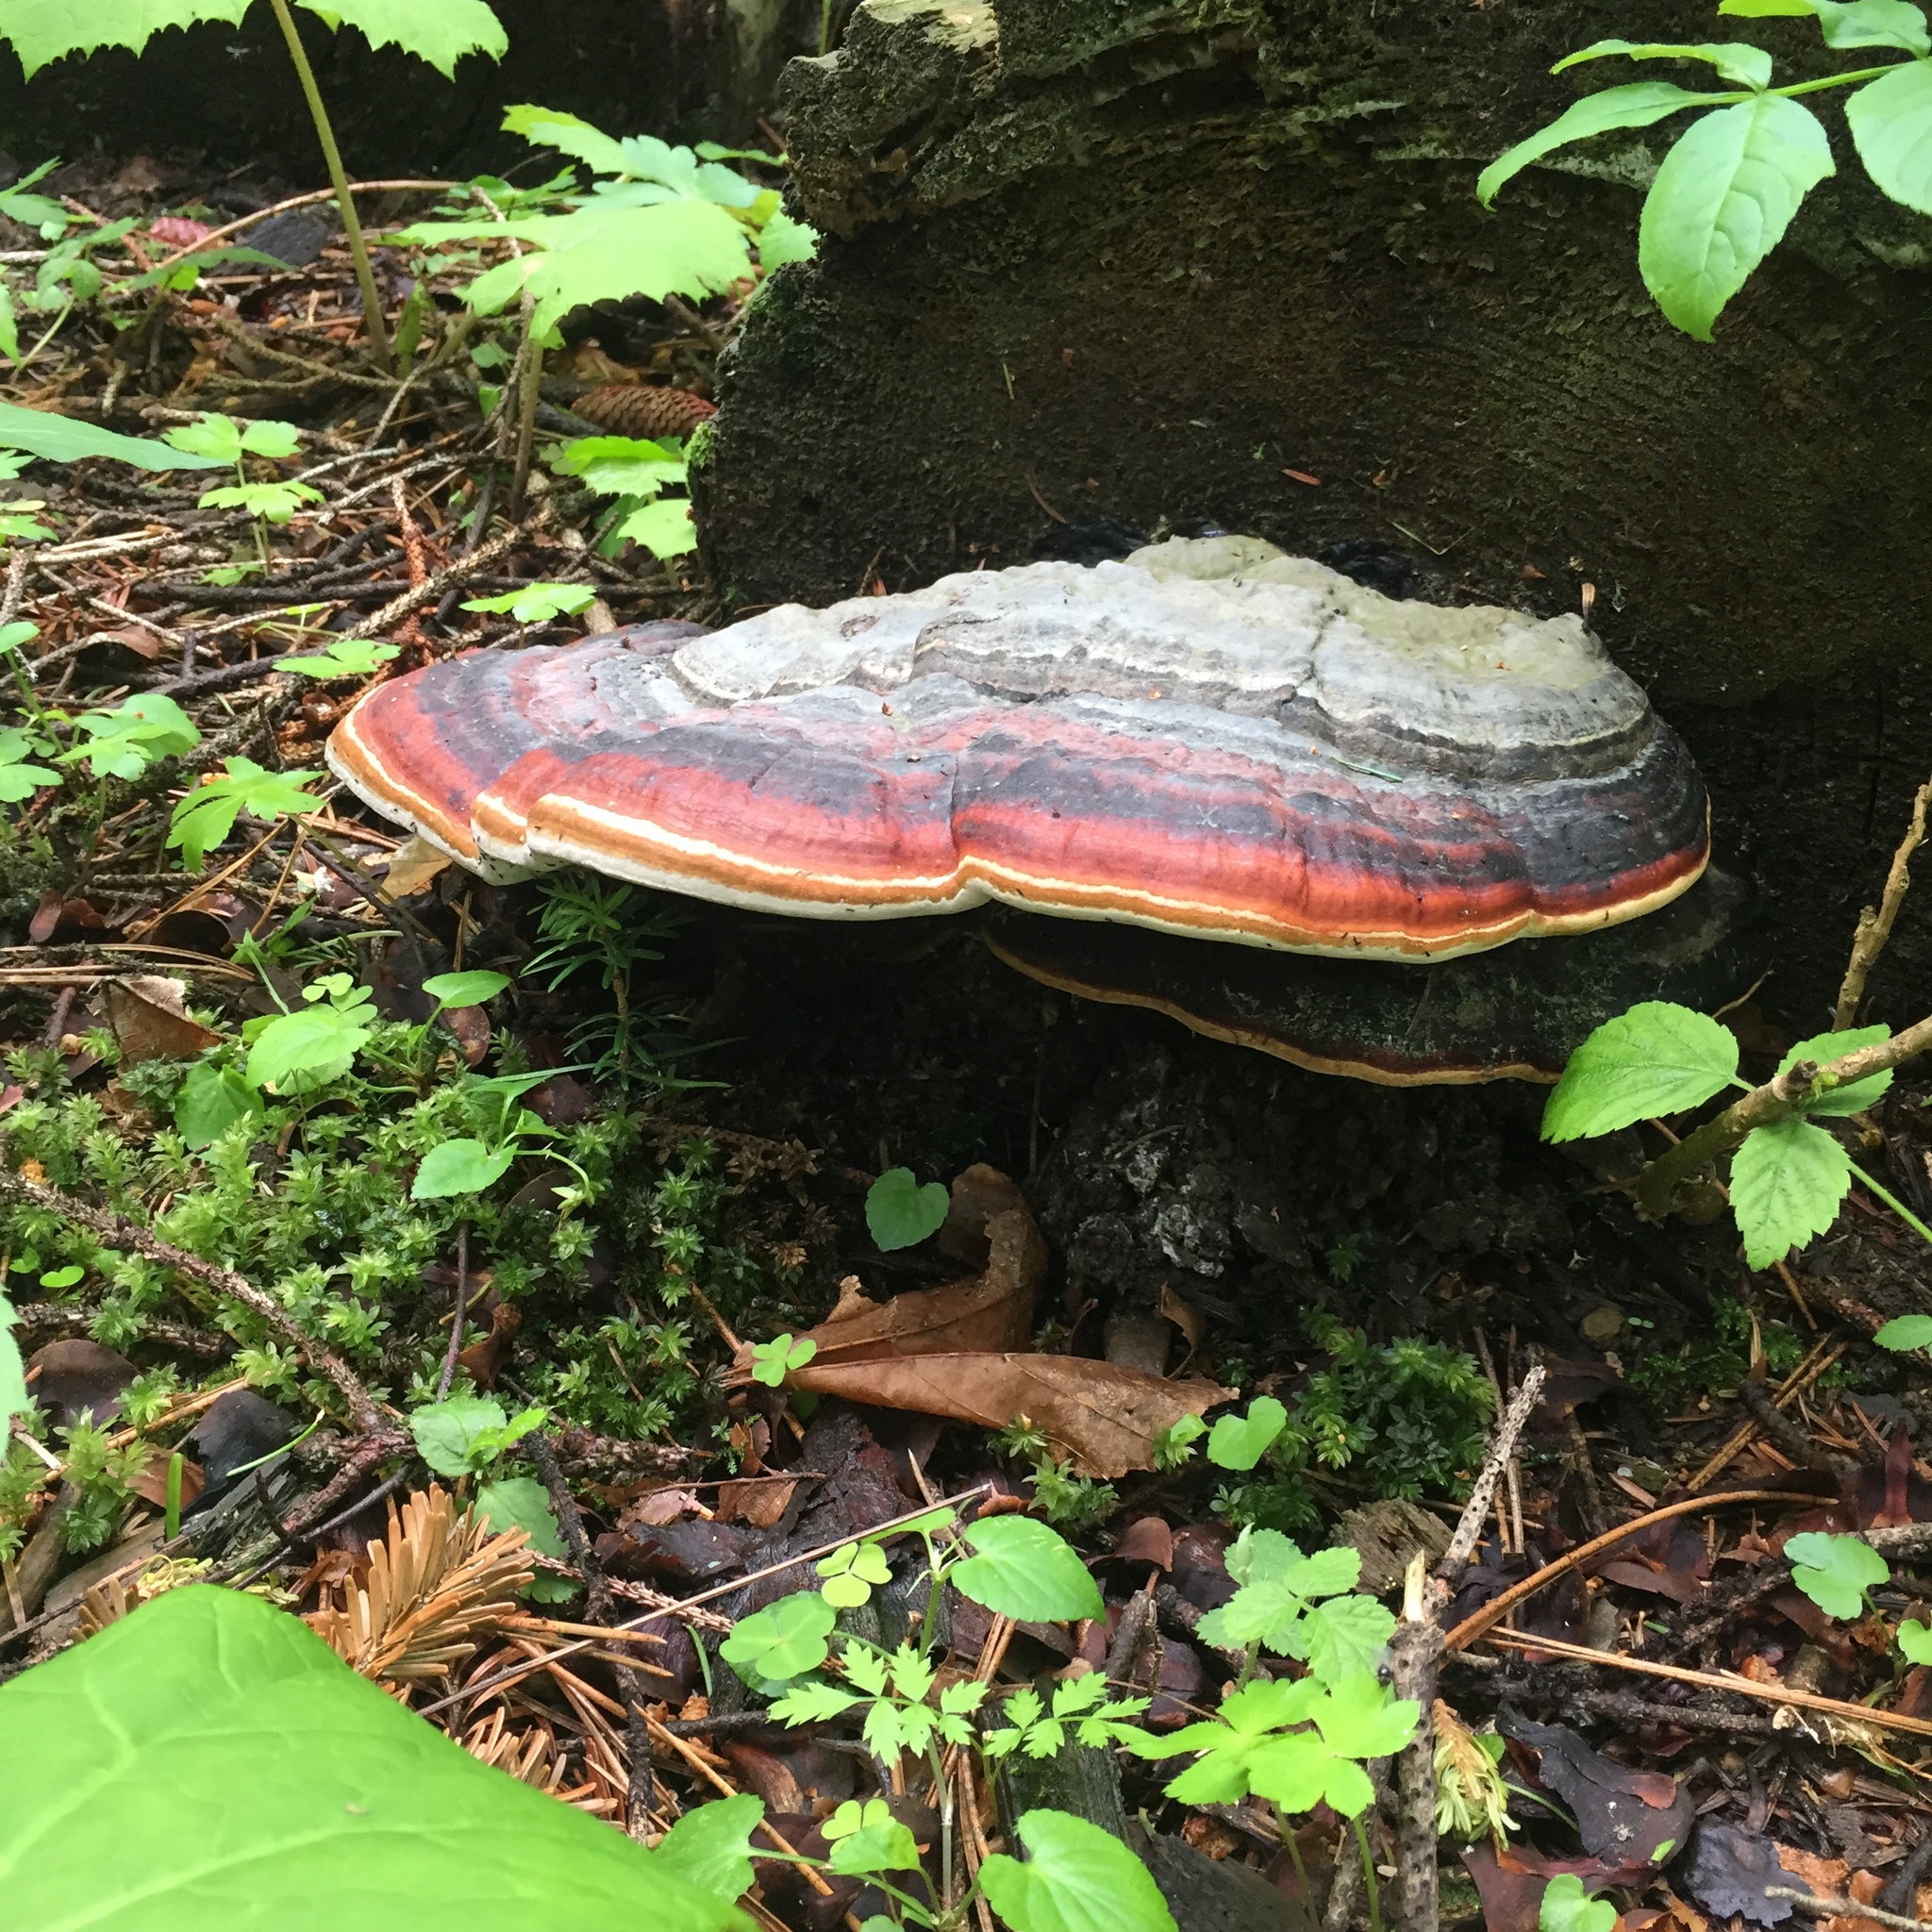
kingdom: Fungi
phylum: Basidiomycota
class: Agaricomycetes
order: Polyporales
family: Fomitopsidaceae
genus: Fomitopsis
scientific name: Fomitopsis pinicola
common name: Red-belted bracket
